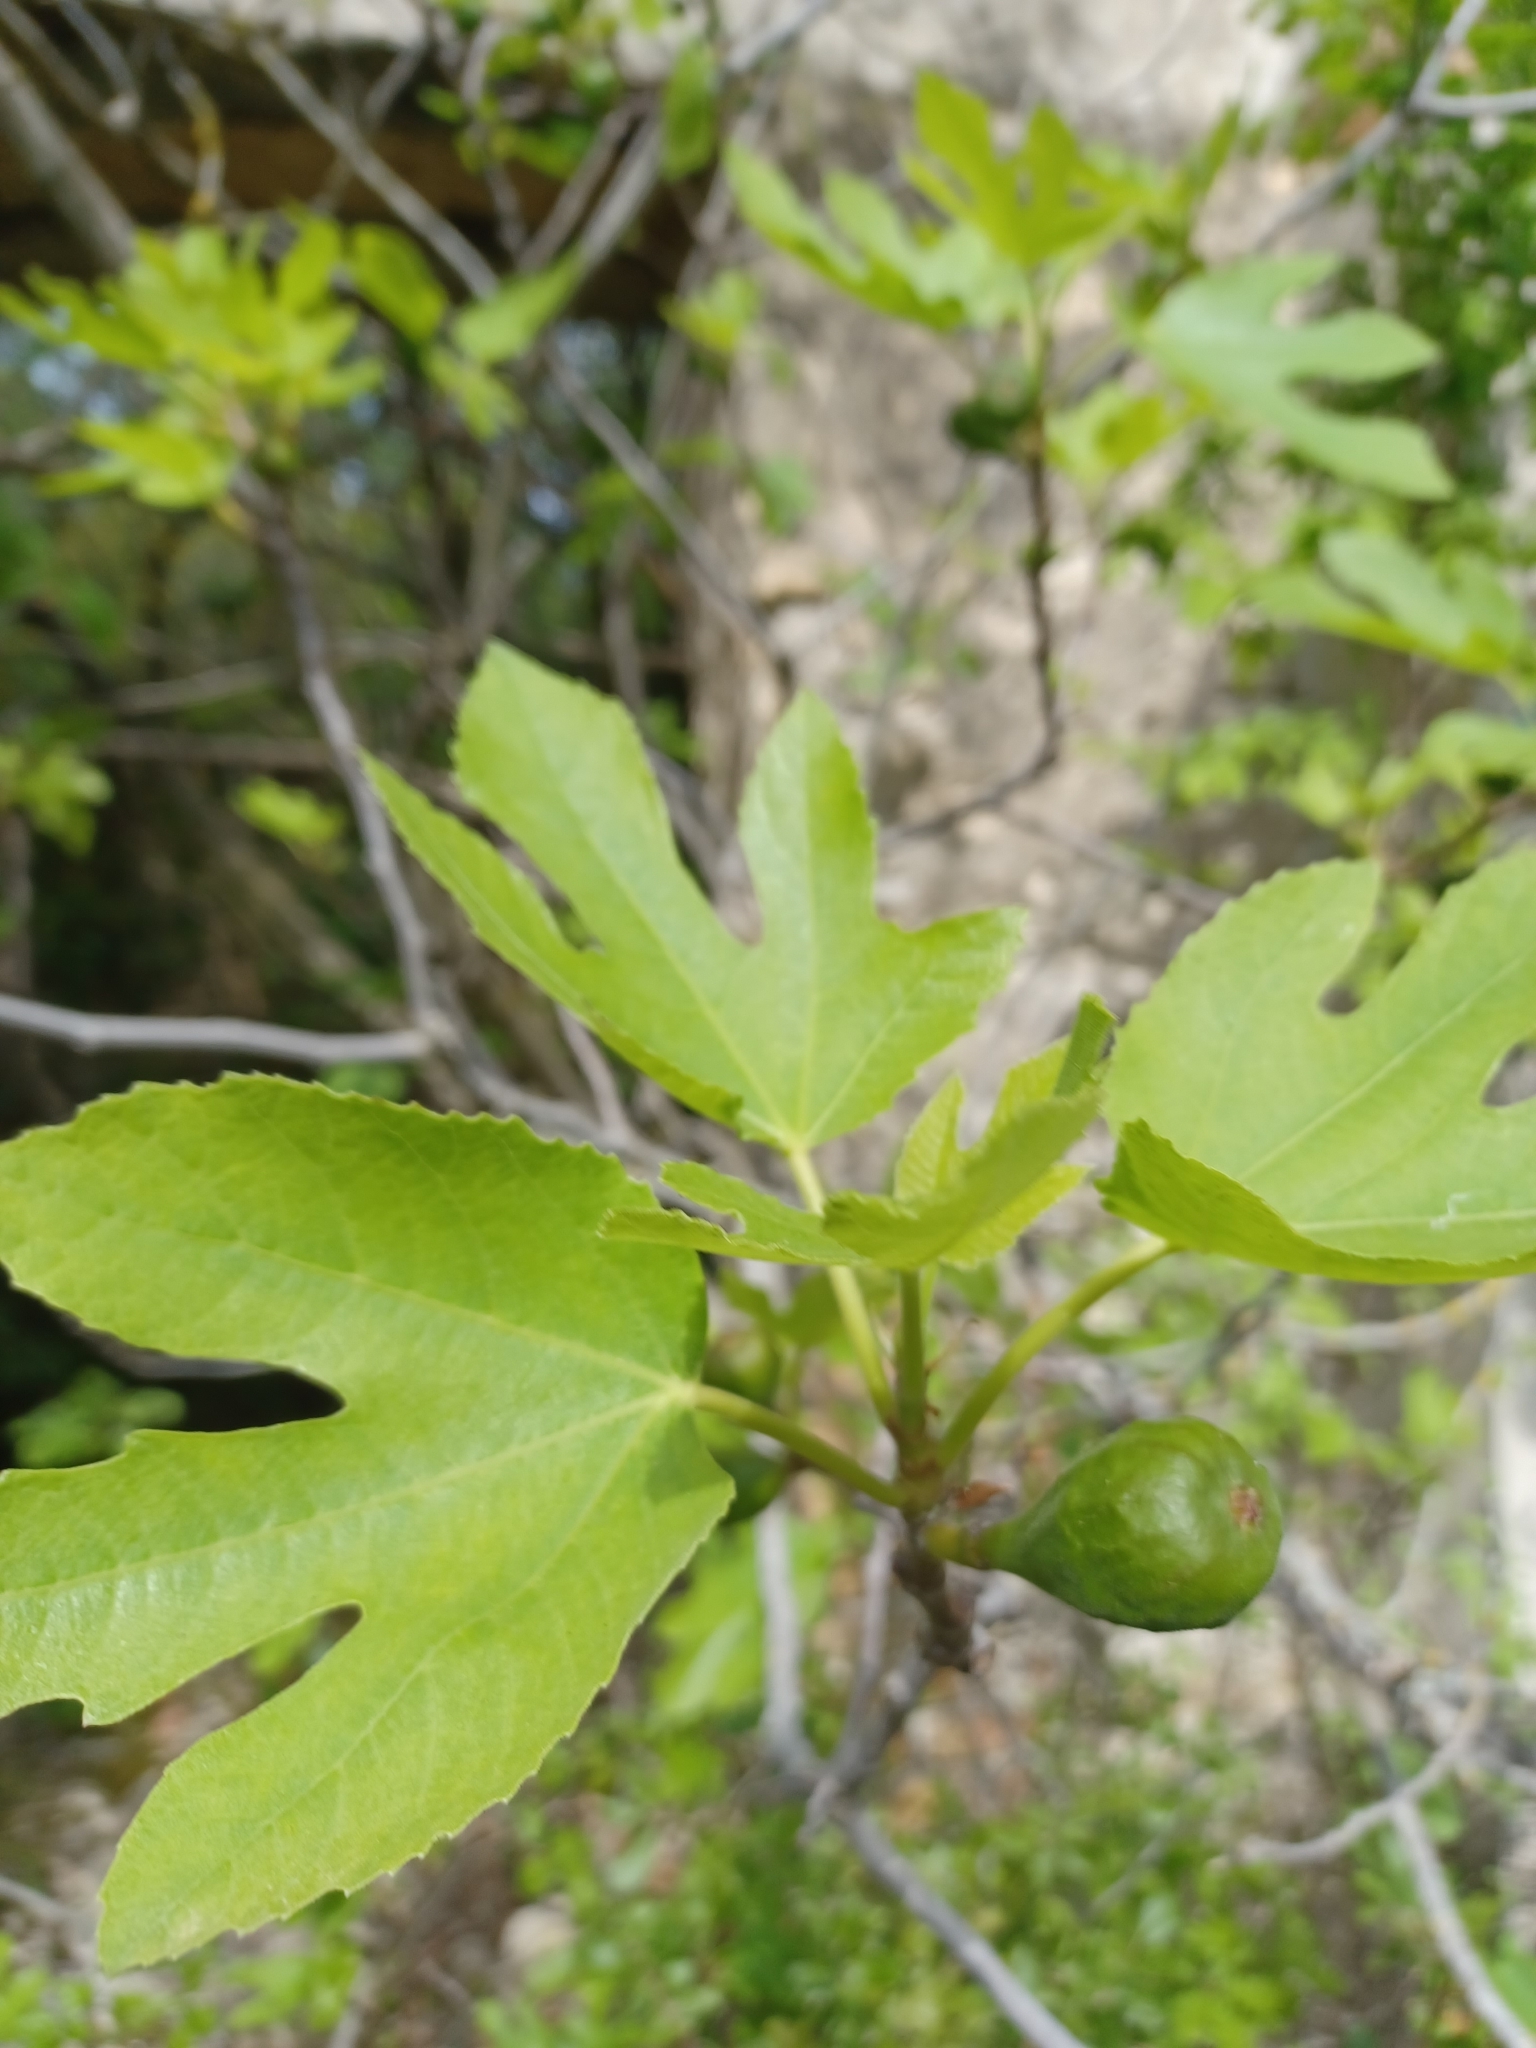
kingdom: Plantae
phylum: Tracheophyta
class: Magnoliopsida
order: Rosales
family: Moraceae
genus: Ficus
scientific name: Ficus carica
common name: Fig
